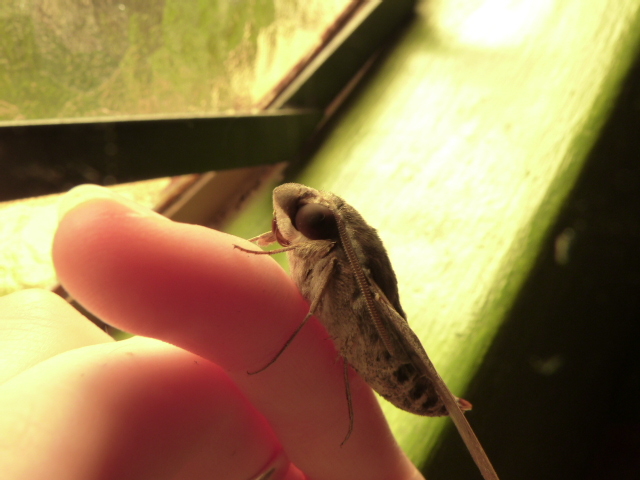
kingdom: Animalia
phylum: Arthropoda
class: Insecta
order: Lepidoptera
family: Sphingidae
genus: Nephele
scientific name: Nephele comma
